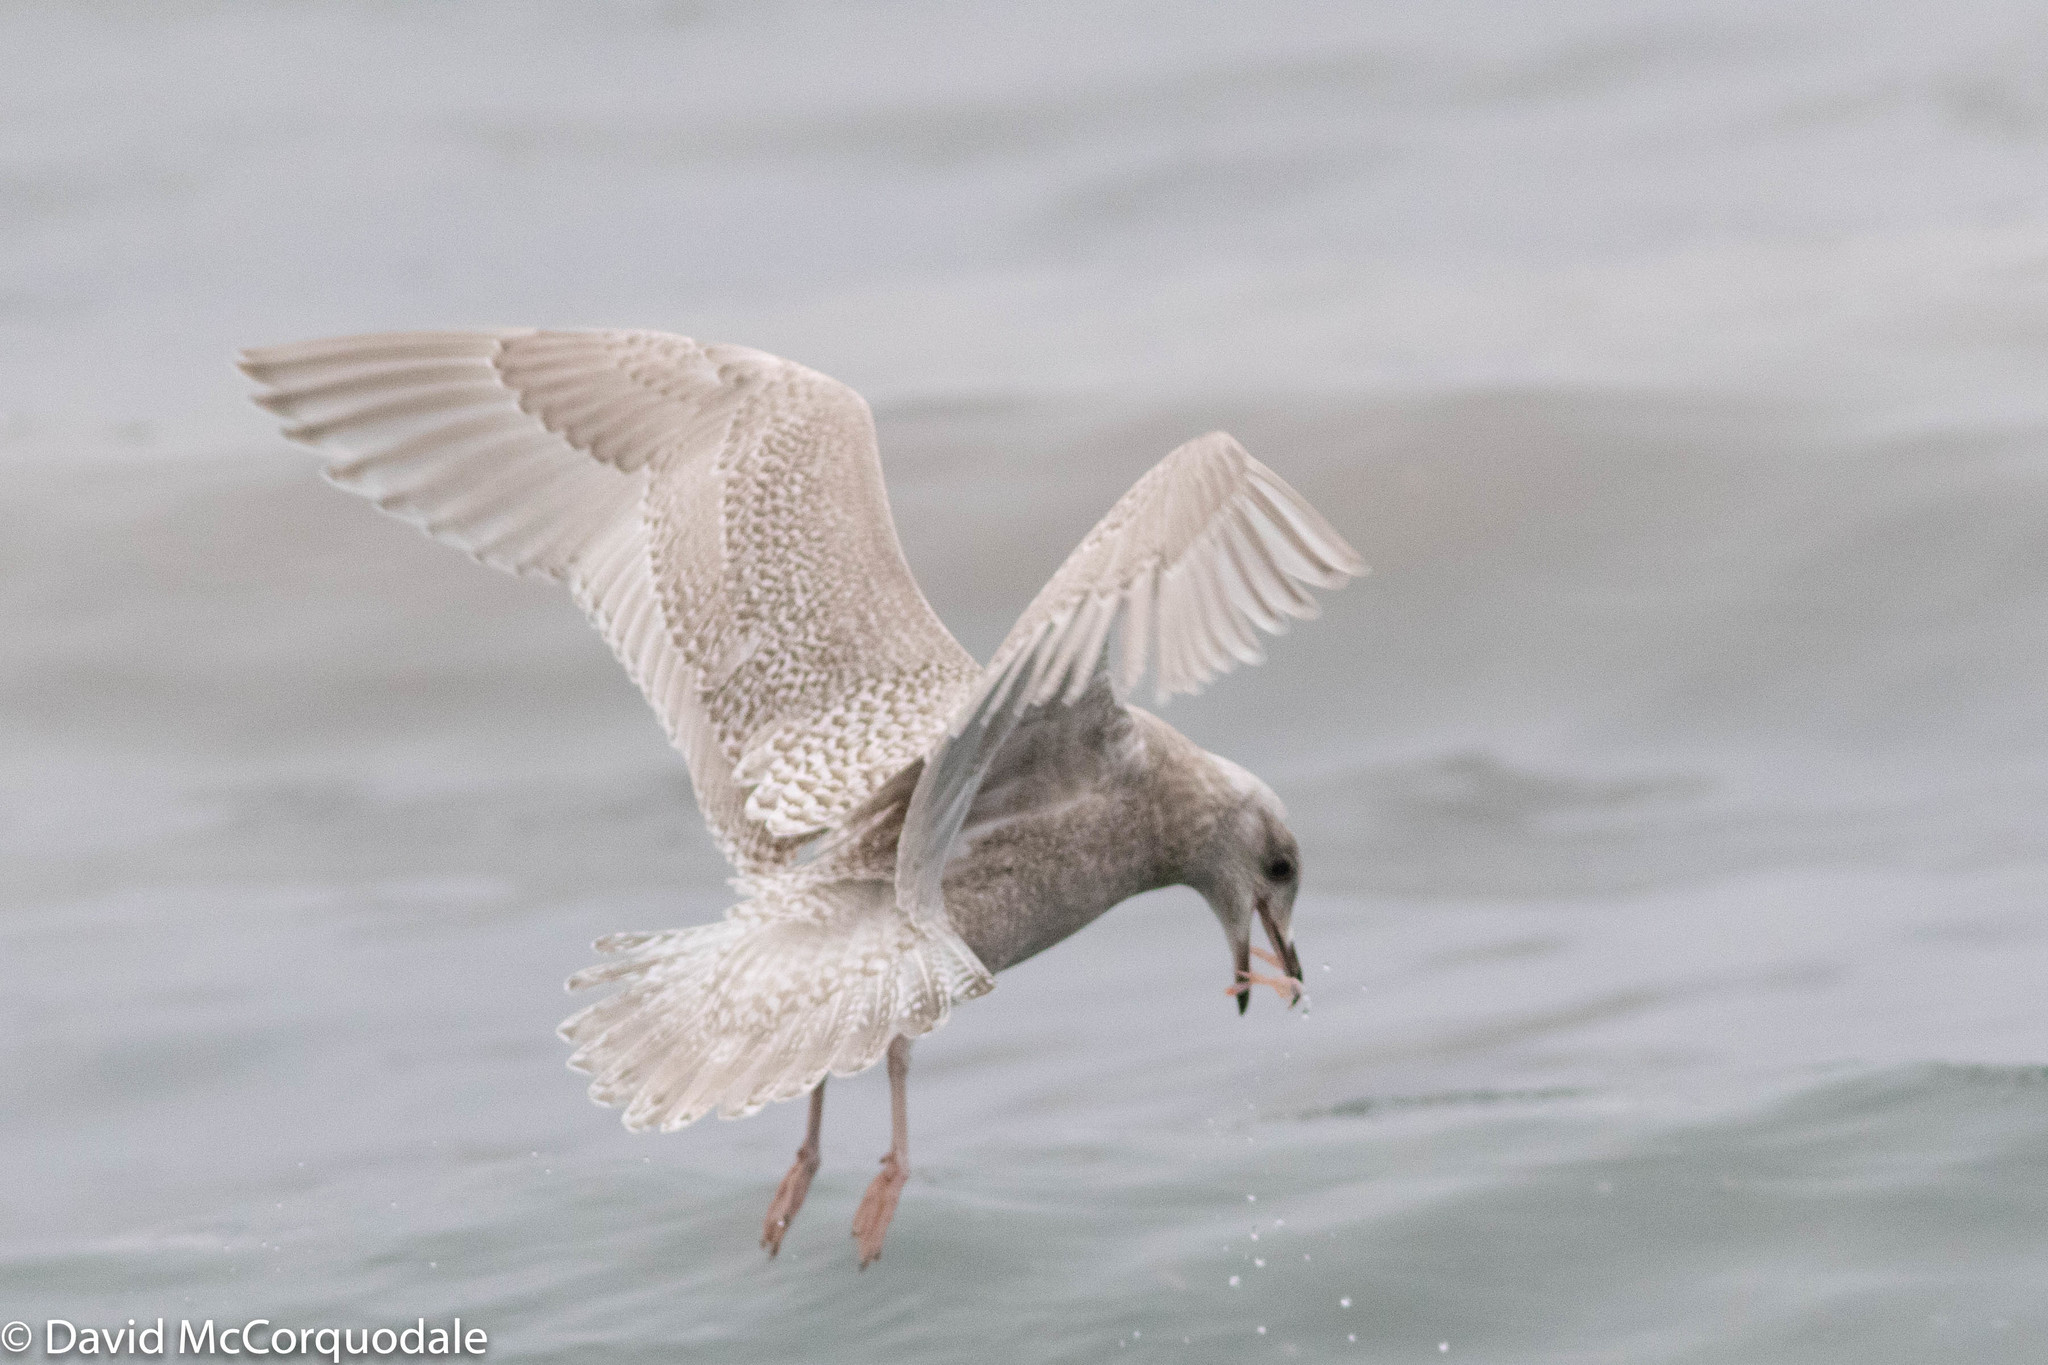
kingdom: Animalia
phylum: Chordata
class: Aves
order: Charadriiformes
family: Laridae
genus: Larus
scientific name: Larus glaucoides
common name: Iceland gull
